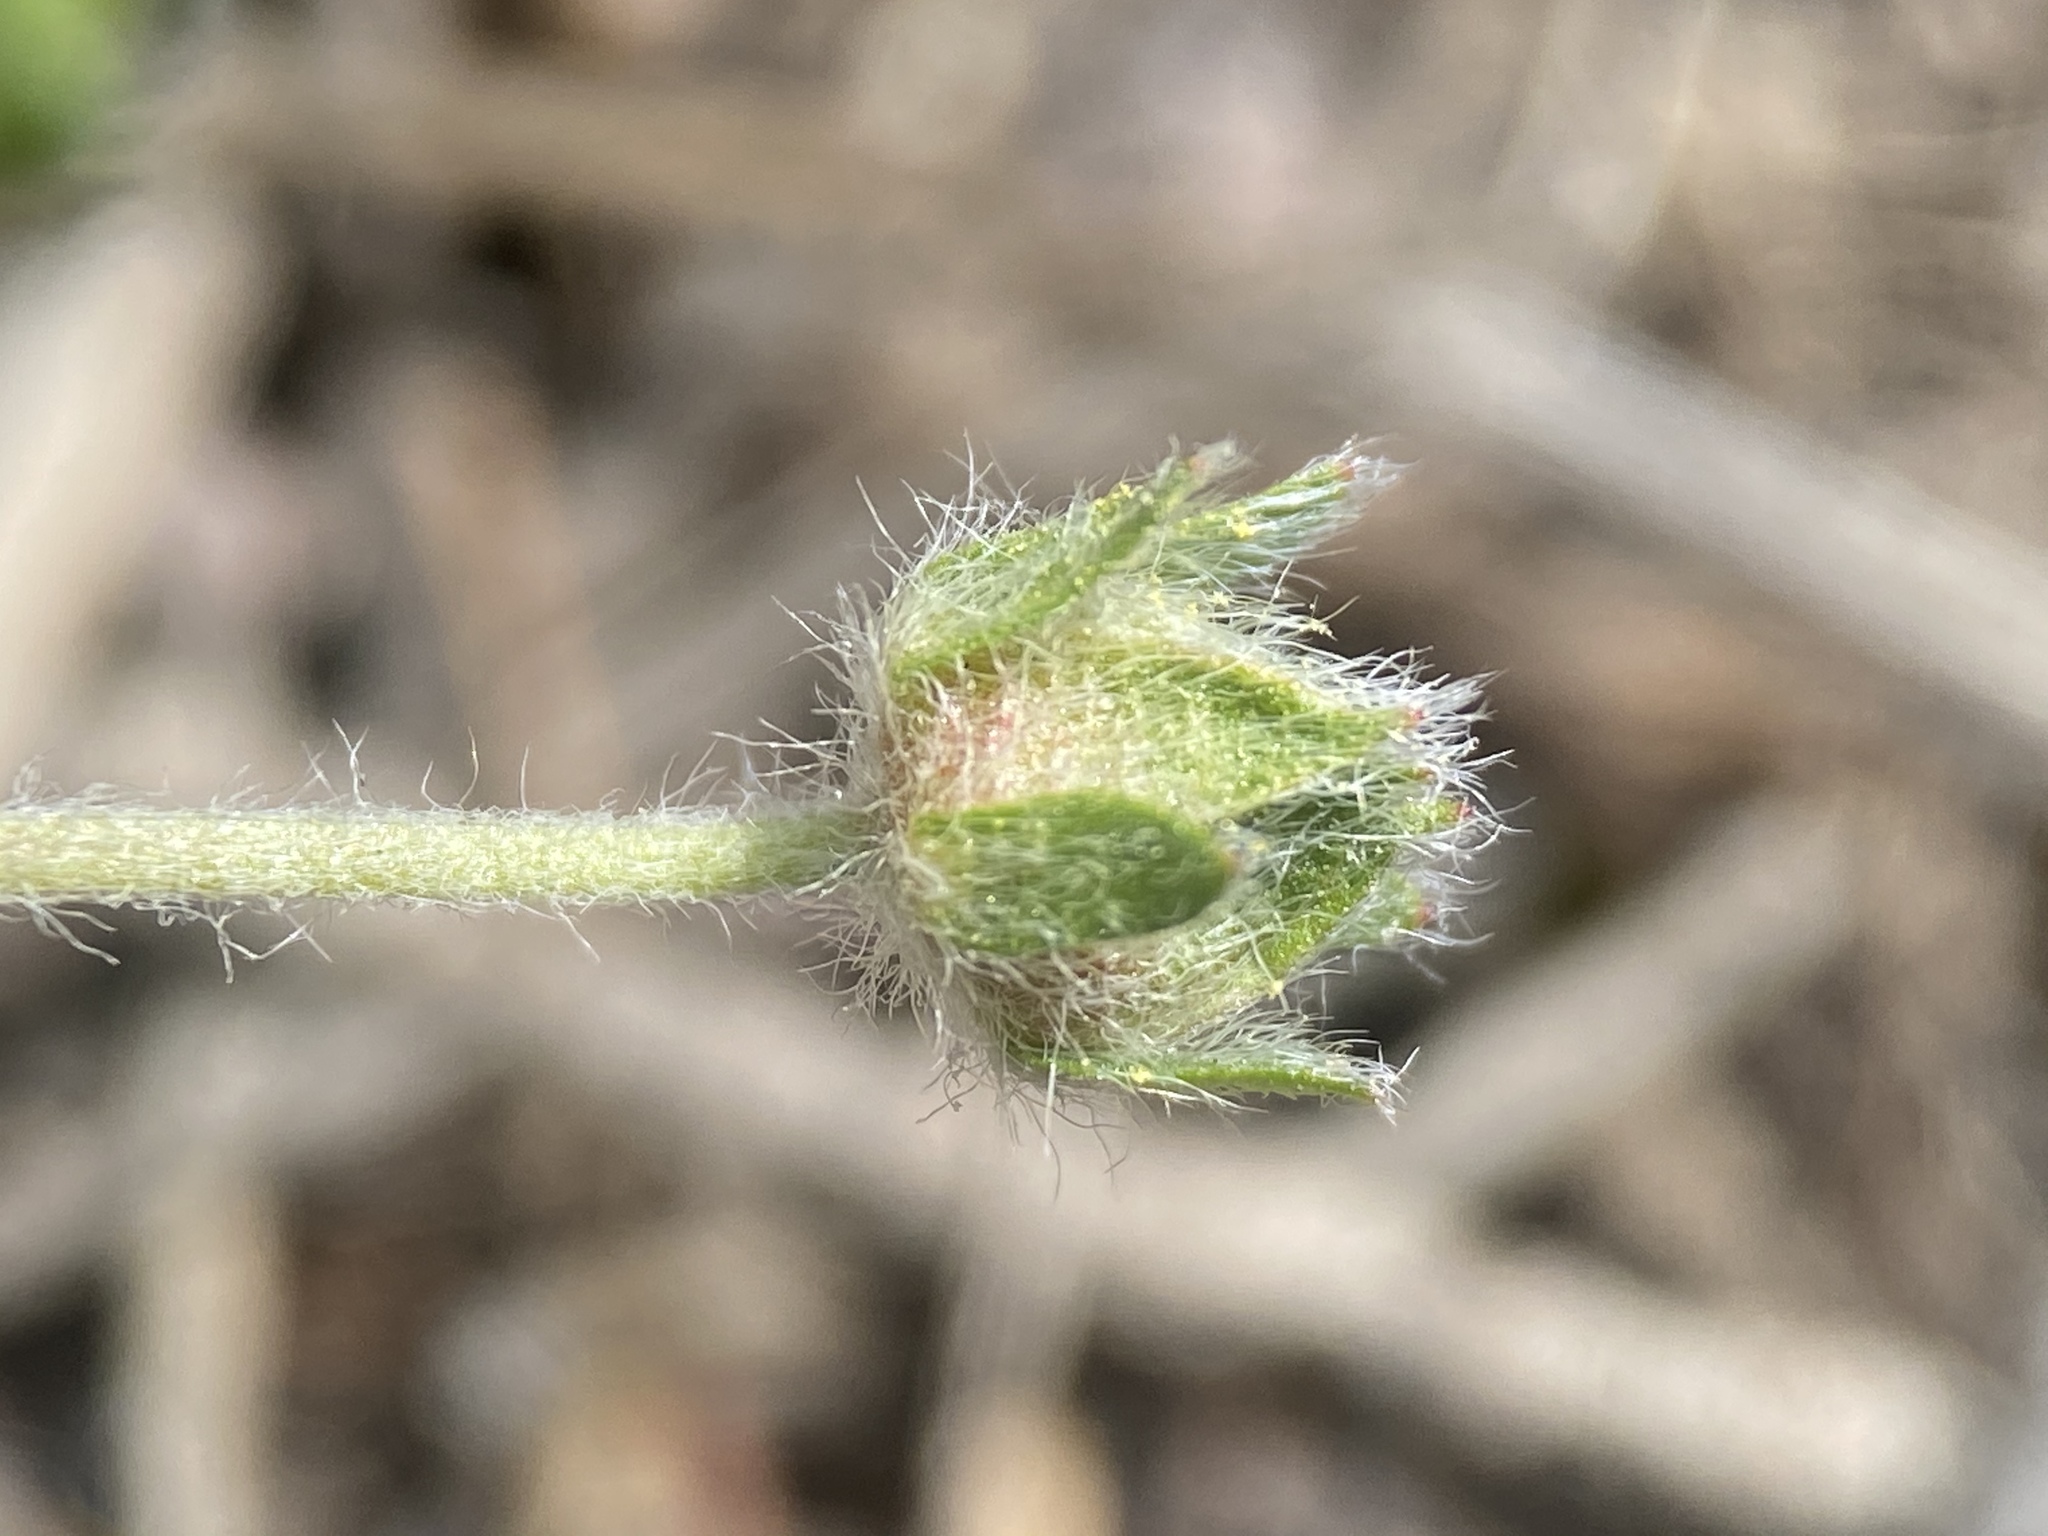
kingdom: Plantae
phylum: Tracheophyta
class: Magnoliopsida
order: Rosales
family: Rosaceae
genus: Potentilla
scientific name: Potentilla johnstonii
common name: Sagebrush cinquefoil
